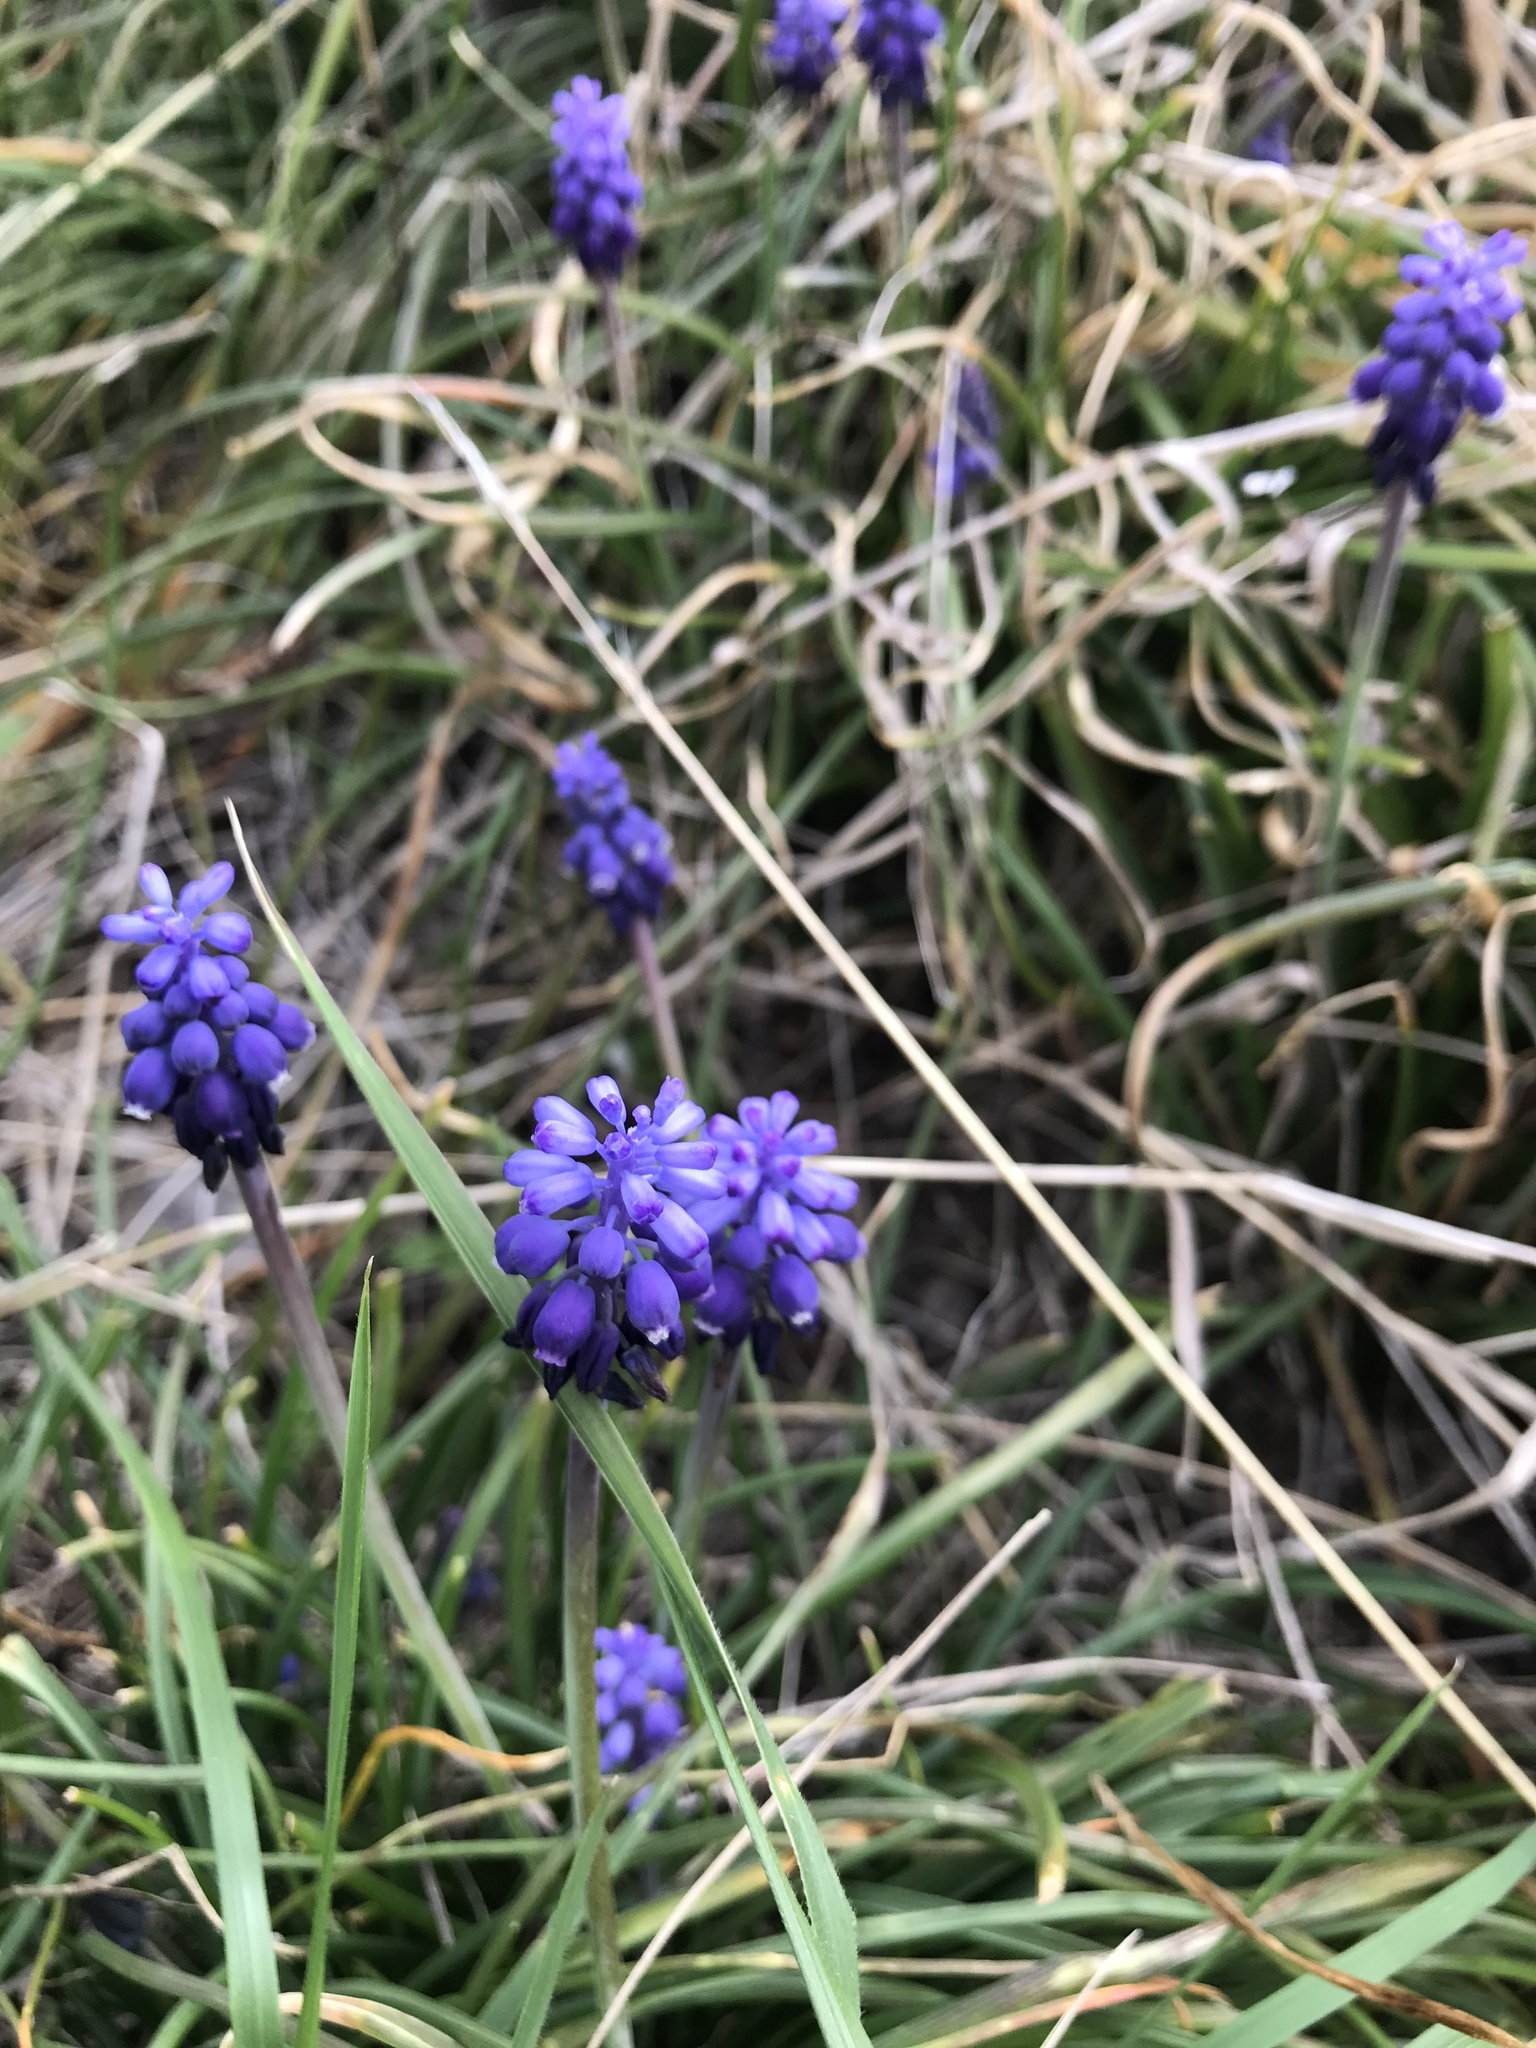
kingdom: Plantae
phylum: Tracheophyta
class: Liliopsida
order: Asparagales
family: Asparagaceae
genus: Muscari
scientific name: Muscari neglectum
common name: Grape-hyacinth
